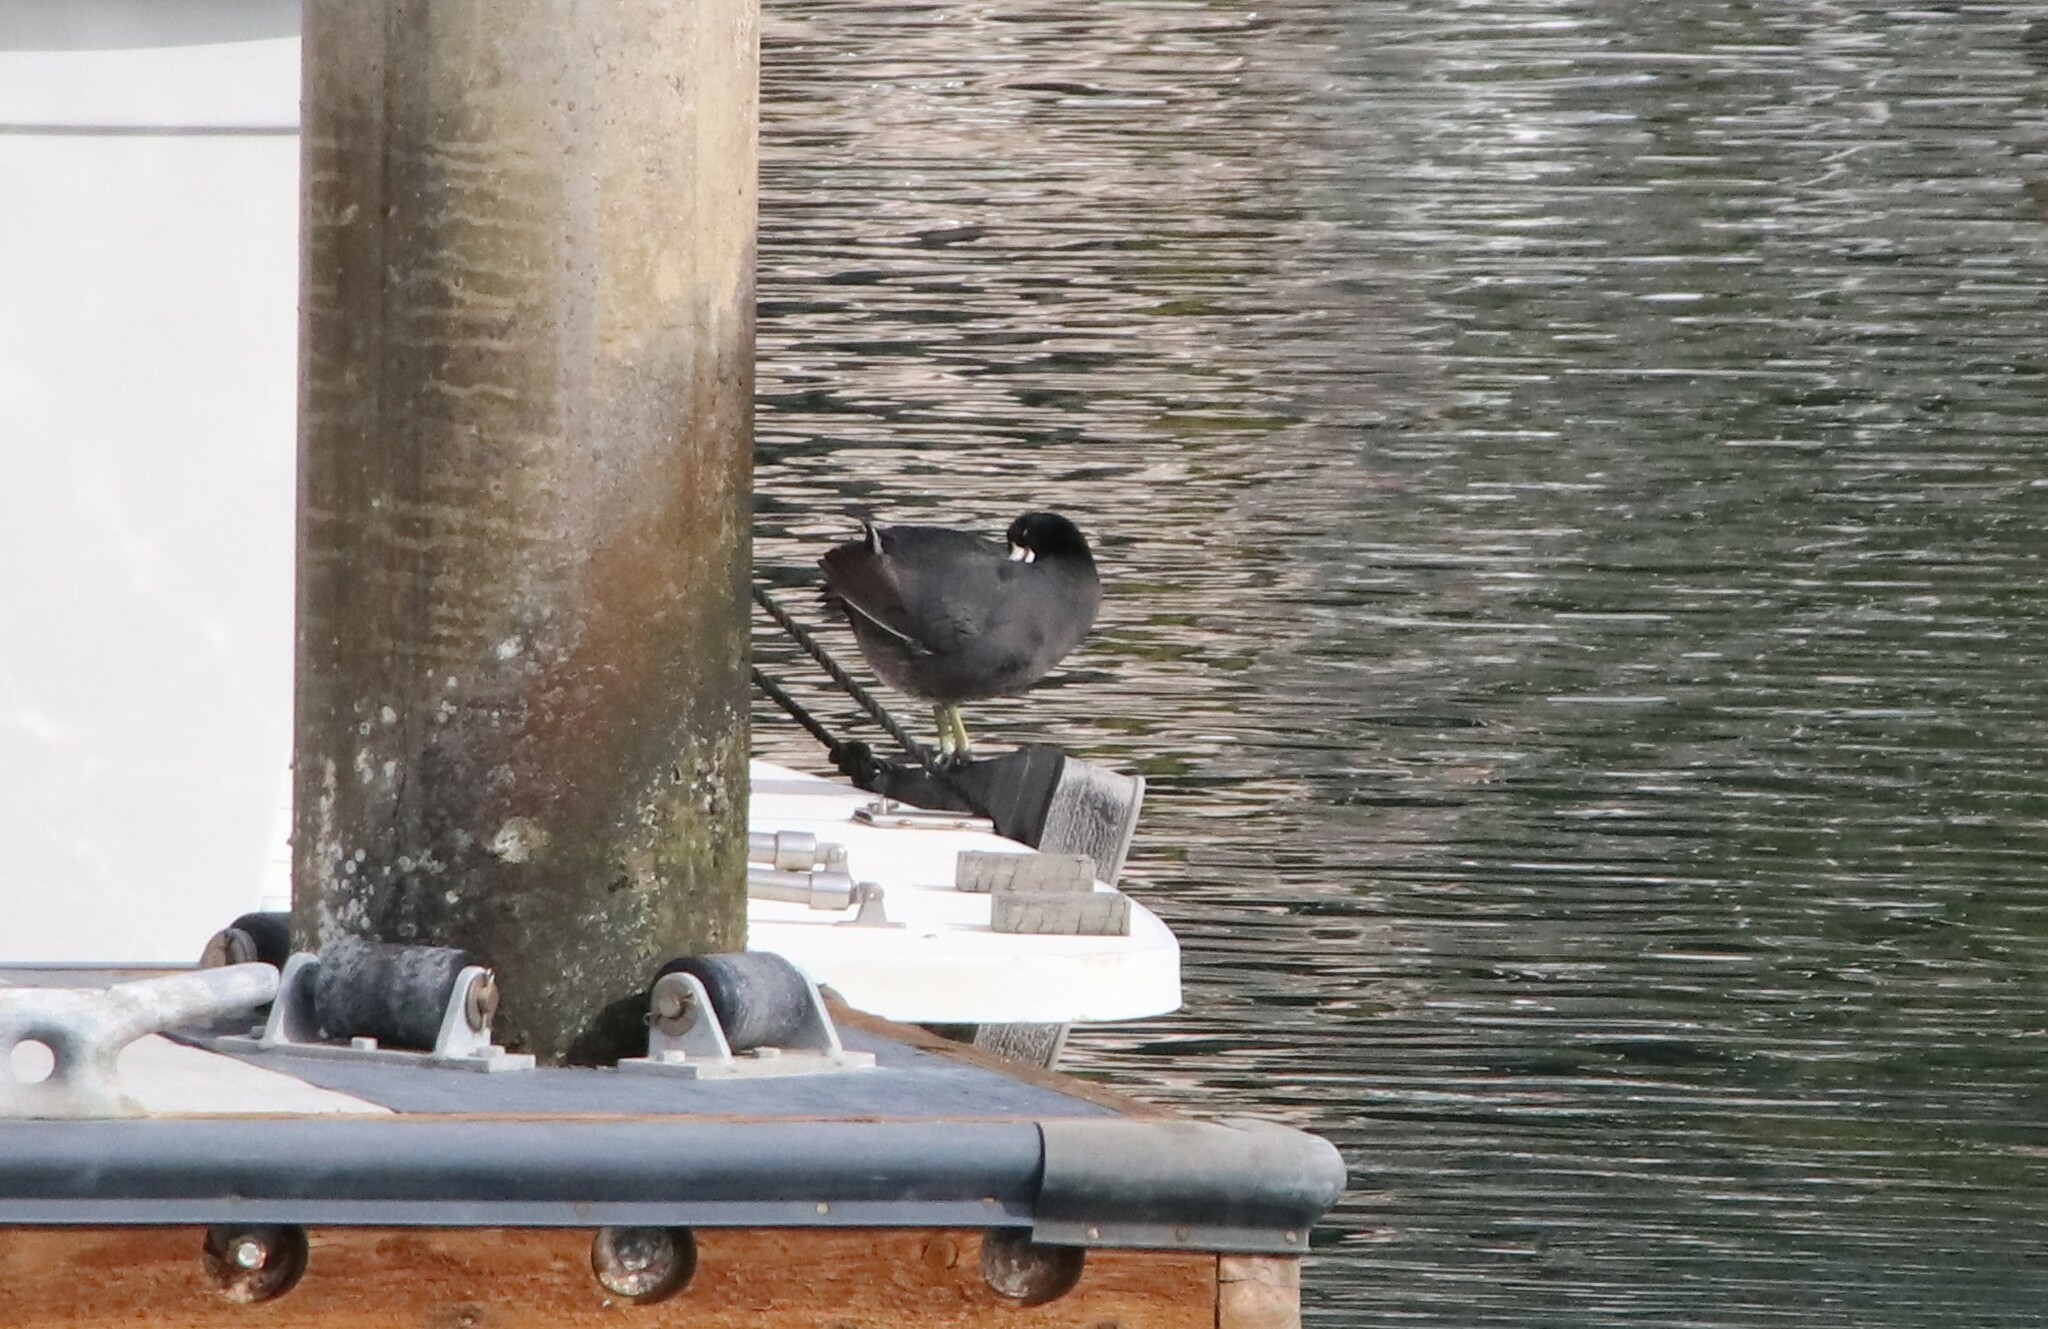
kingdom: Animalia
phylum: Chordata
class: Aves
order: Gruiformes
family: Rallidae
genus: Fulica
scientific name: Fulica americana
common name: American coot
